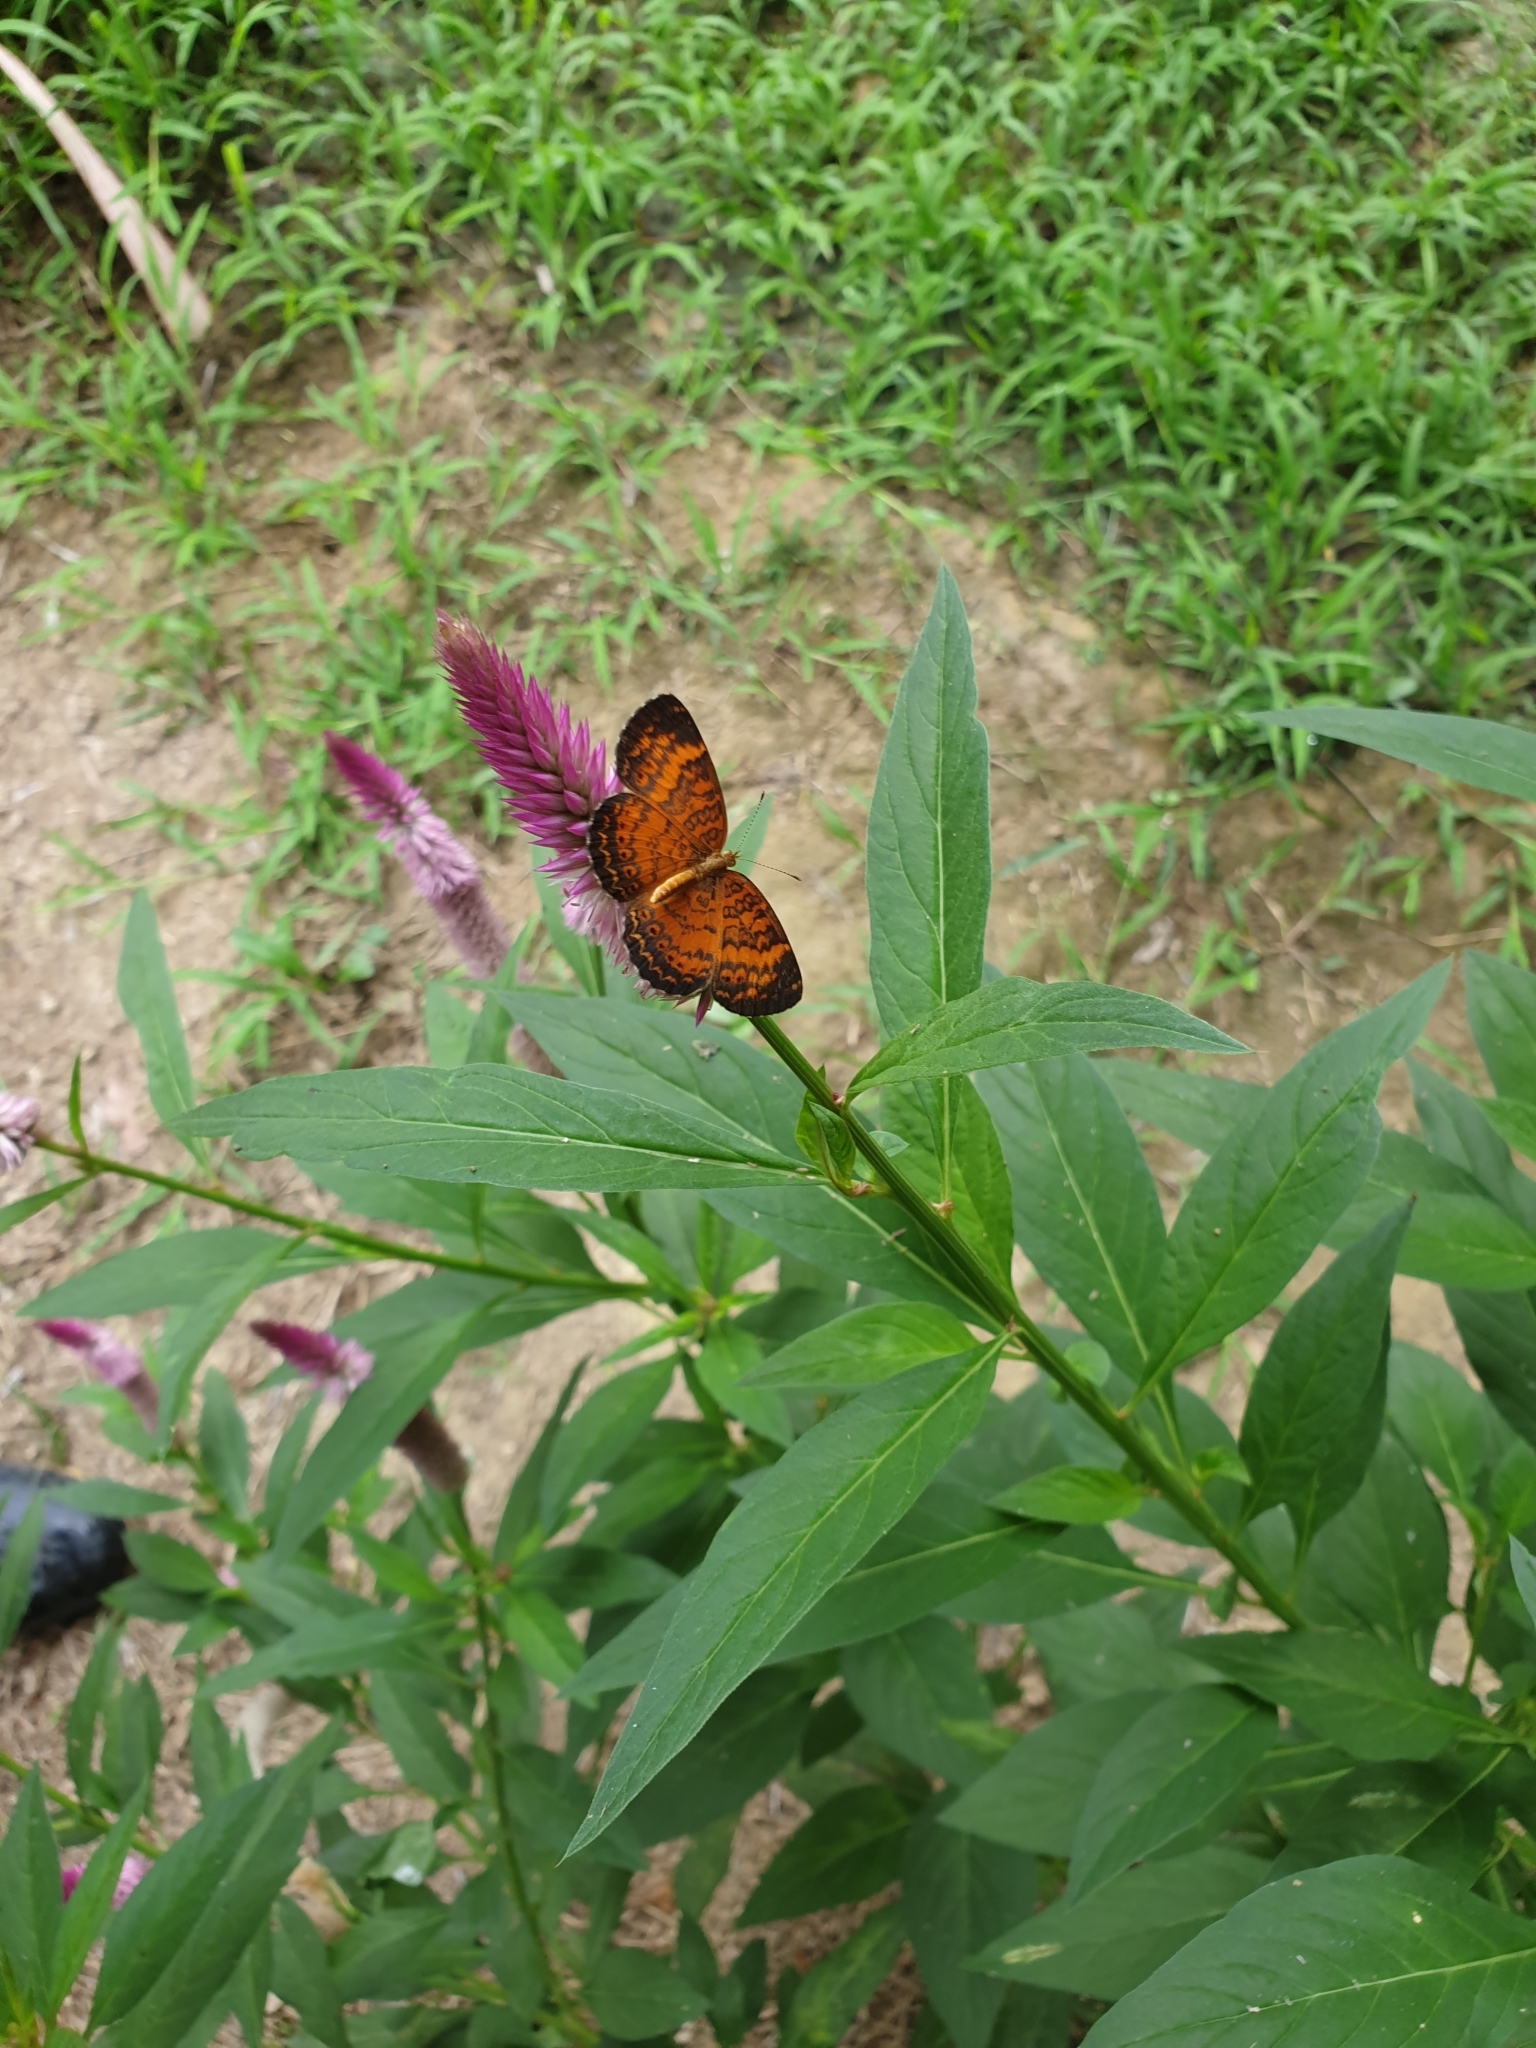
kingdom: Animalia
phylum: Arthropoda
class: Insecta
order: Lepidoptera
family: Nymphalidae
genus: Mazia
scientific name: Mazia amazonica
